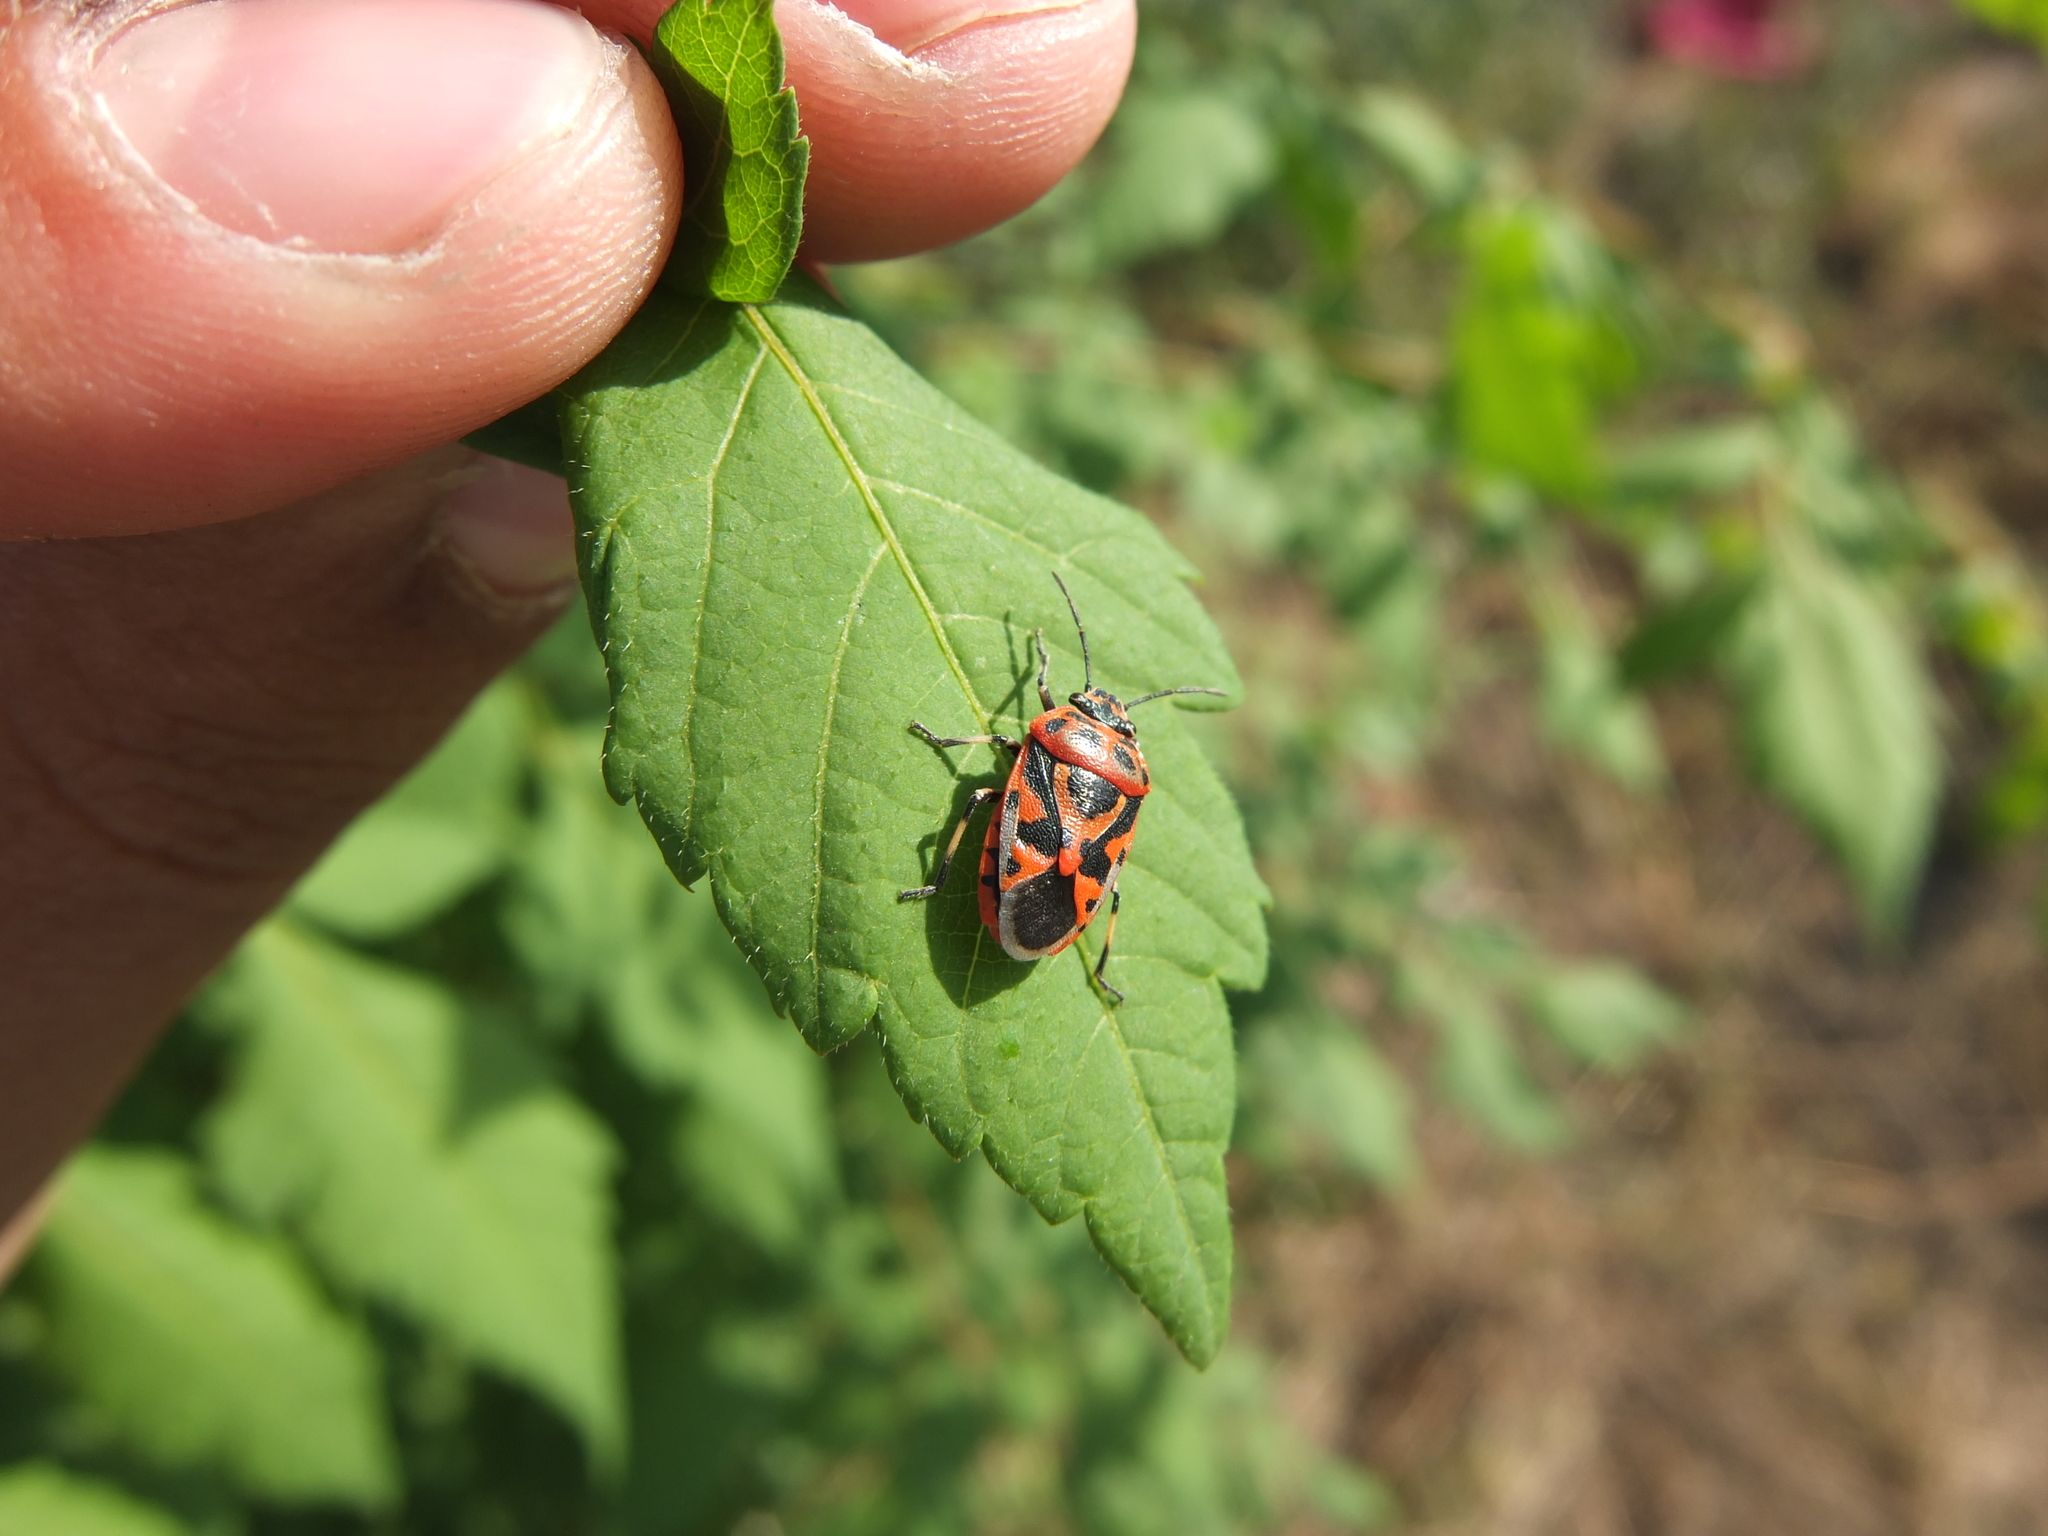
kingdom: Animalia
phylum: Arthropoda
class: Insecta
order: Hemiptera
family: Pentatomidae
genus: Eurydema
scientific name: Eurydema ornata
